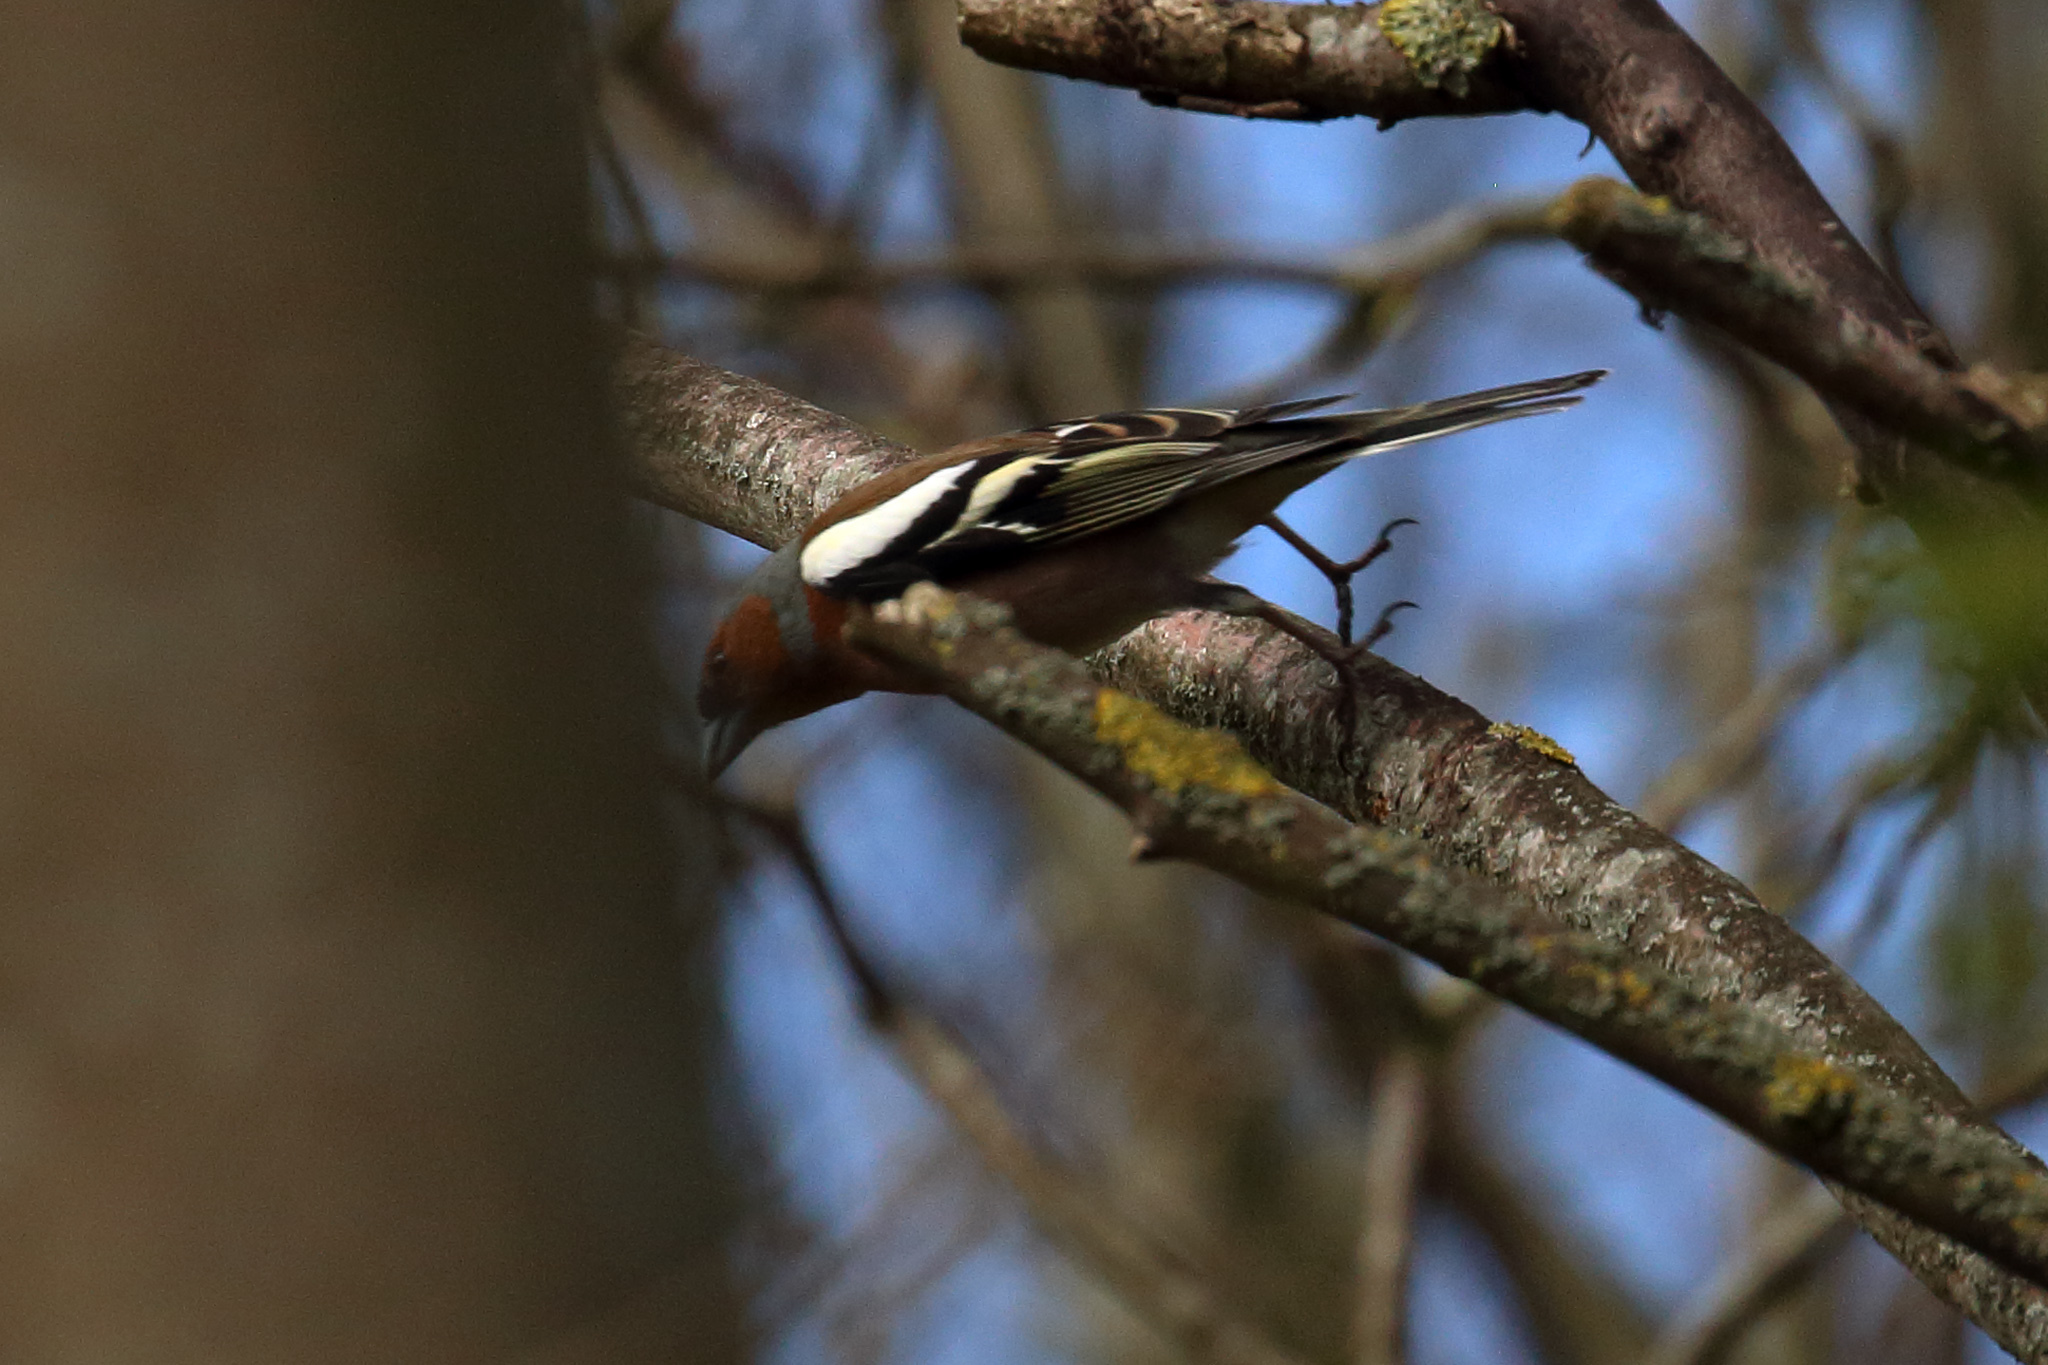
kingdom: Animalia
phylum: Chordata
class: Aves
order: Passeriformes
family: Fringillidae
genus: Fringilla
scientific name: Fringilla coelebs
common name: Common chaffinch
